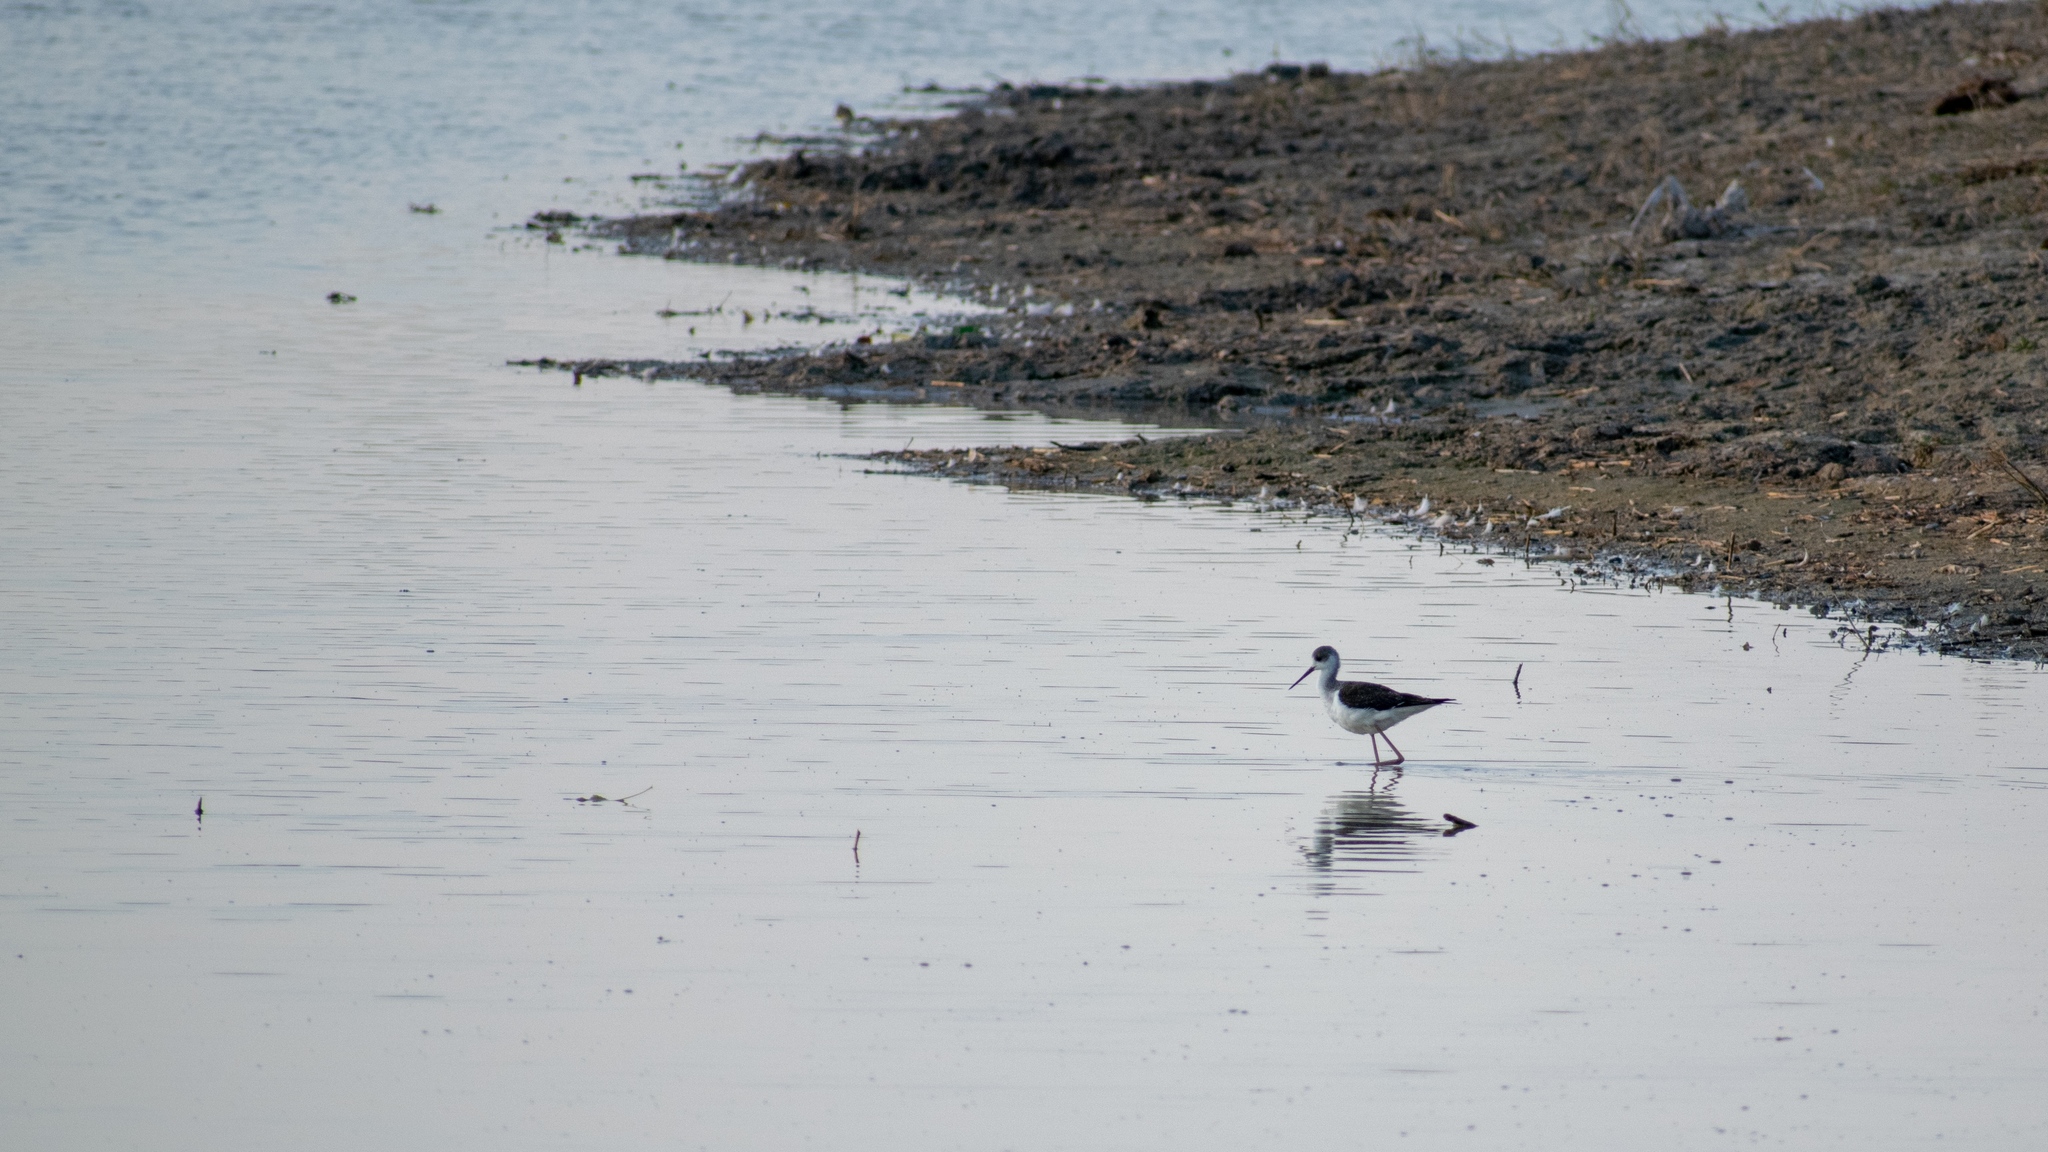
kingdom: Animalia
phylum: Chordata
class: Aves
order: Charadriiformes
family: Recurvirostridae
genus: Himantopus
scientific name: Himantopus himantopus
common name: Black-winged stilt
